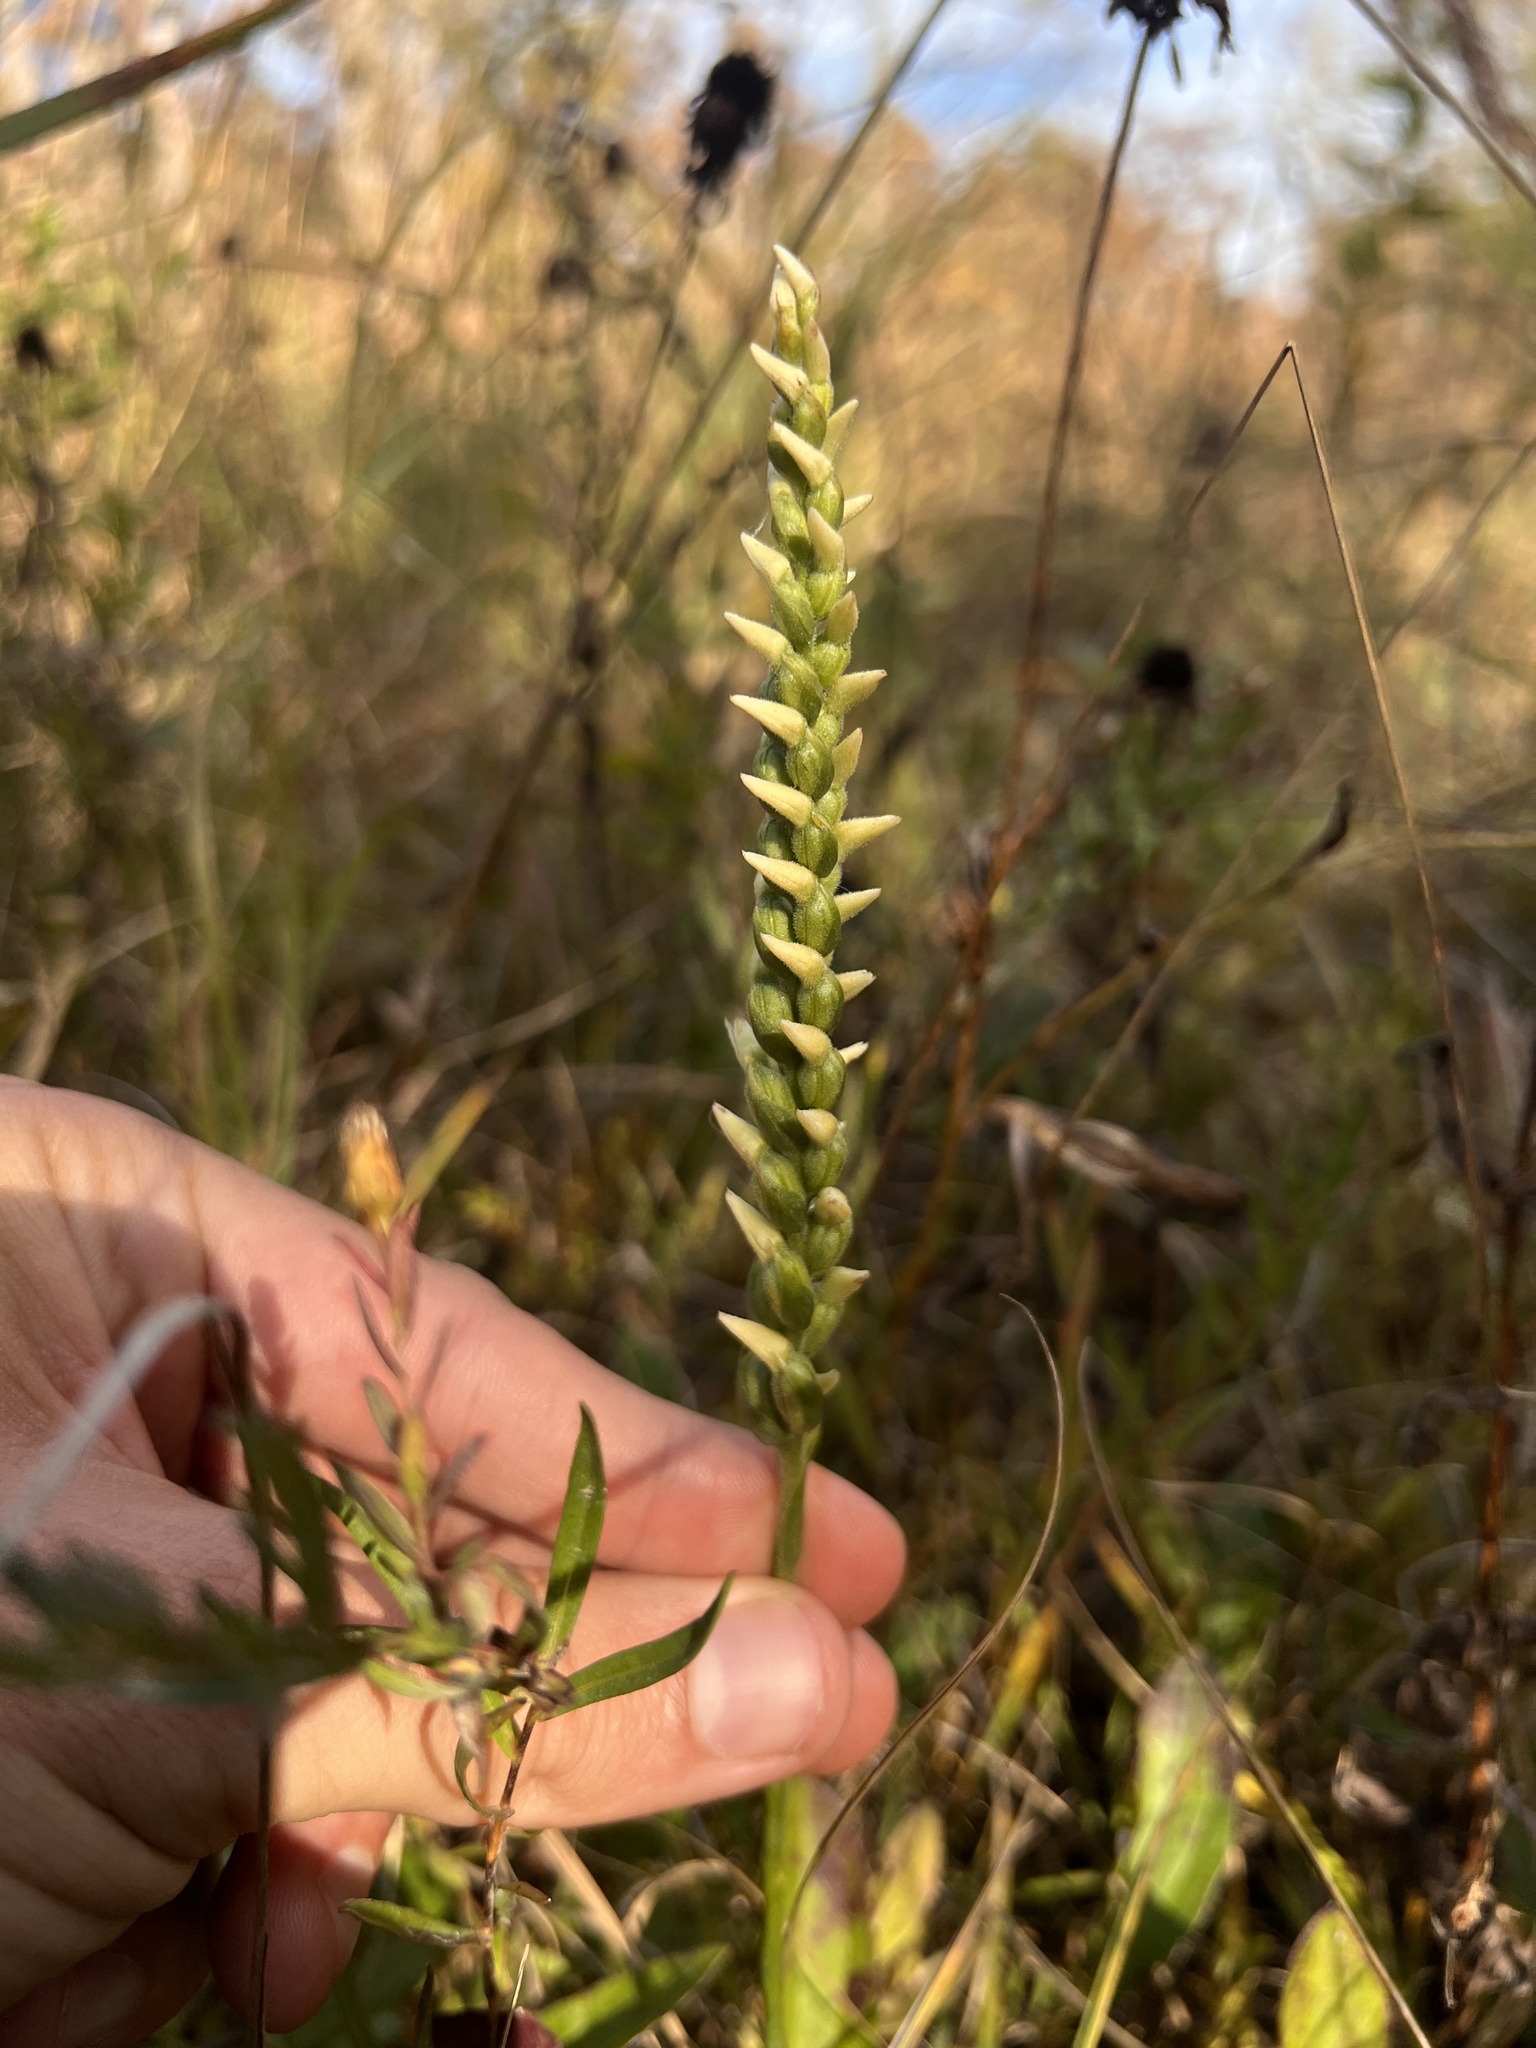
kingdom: Plantae
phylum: Tracheophyta
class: Liliopsida
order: Asparagales
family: Orchidaceae
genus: Spiranthes
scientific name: Spiranthes ovalis
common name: October ladies'-tresses
